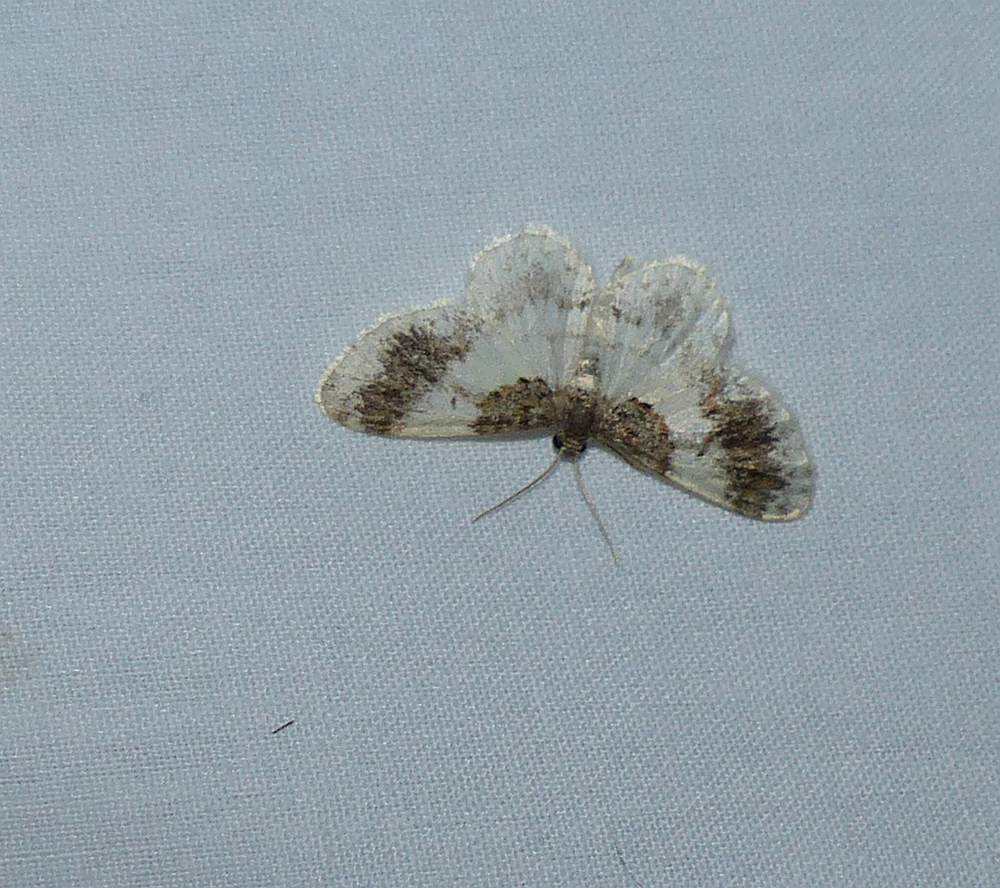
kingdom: Animalia
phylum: Arthropoda
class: Insecta
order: Lepidoptera
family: Geometridae
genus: Hydrelia
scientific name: Hydrelia condensata
